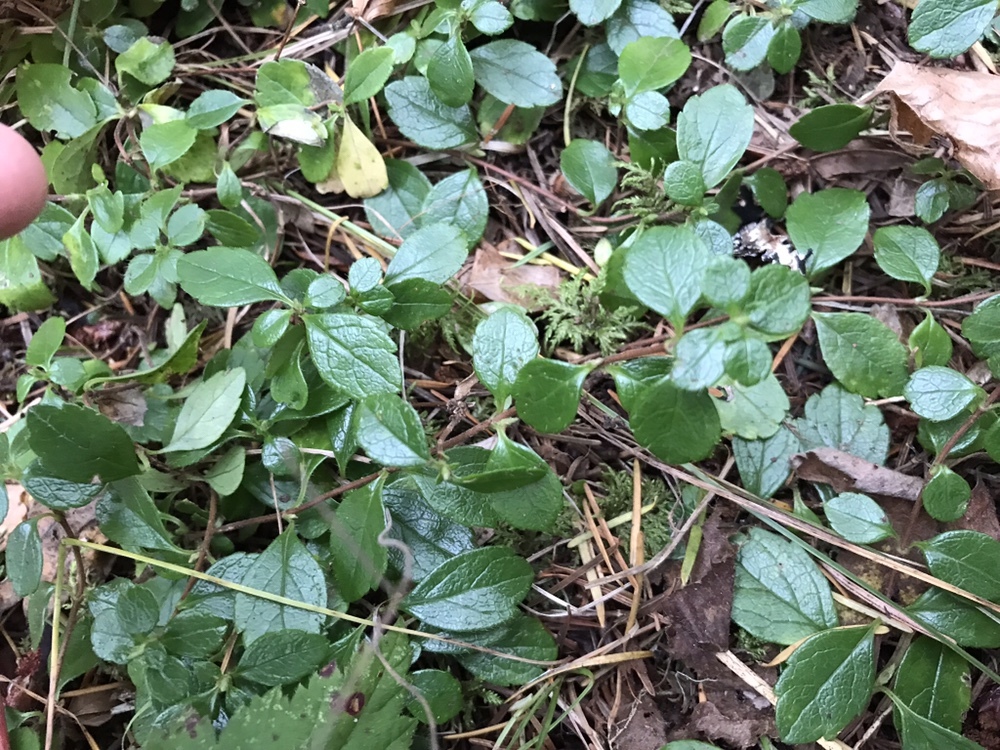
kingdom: Plantae
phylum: Tracheophyta
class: Magnoliopsida
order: Dipsacales
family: Caprifoliaceae
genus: Linnaea
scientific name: Linnaea borealis
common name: Twinflower
